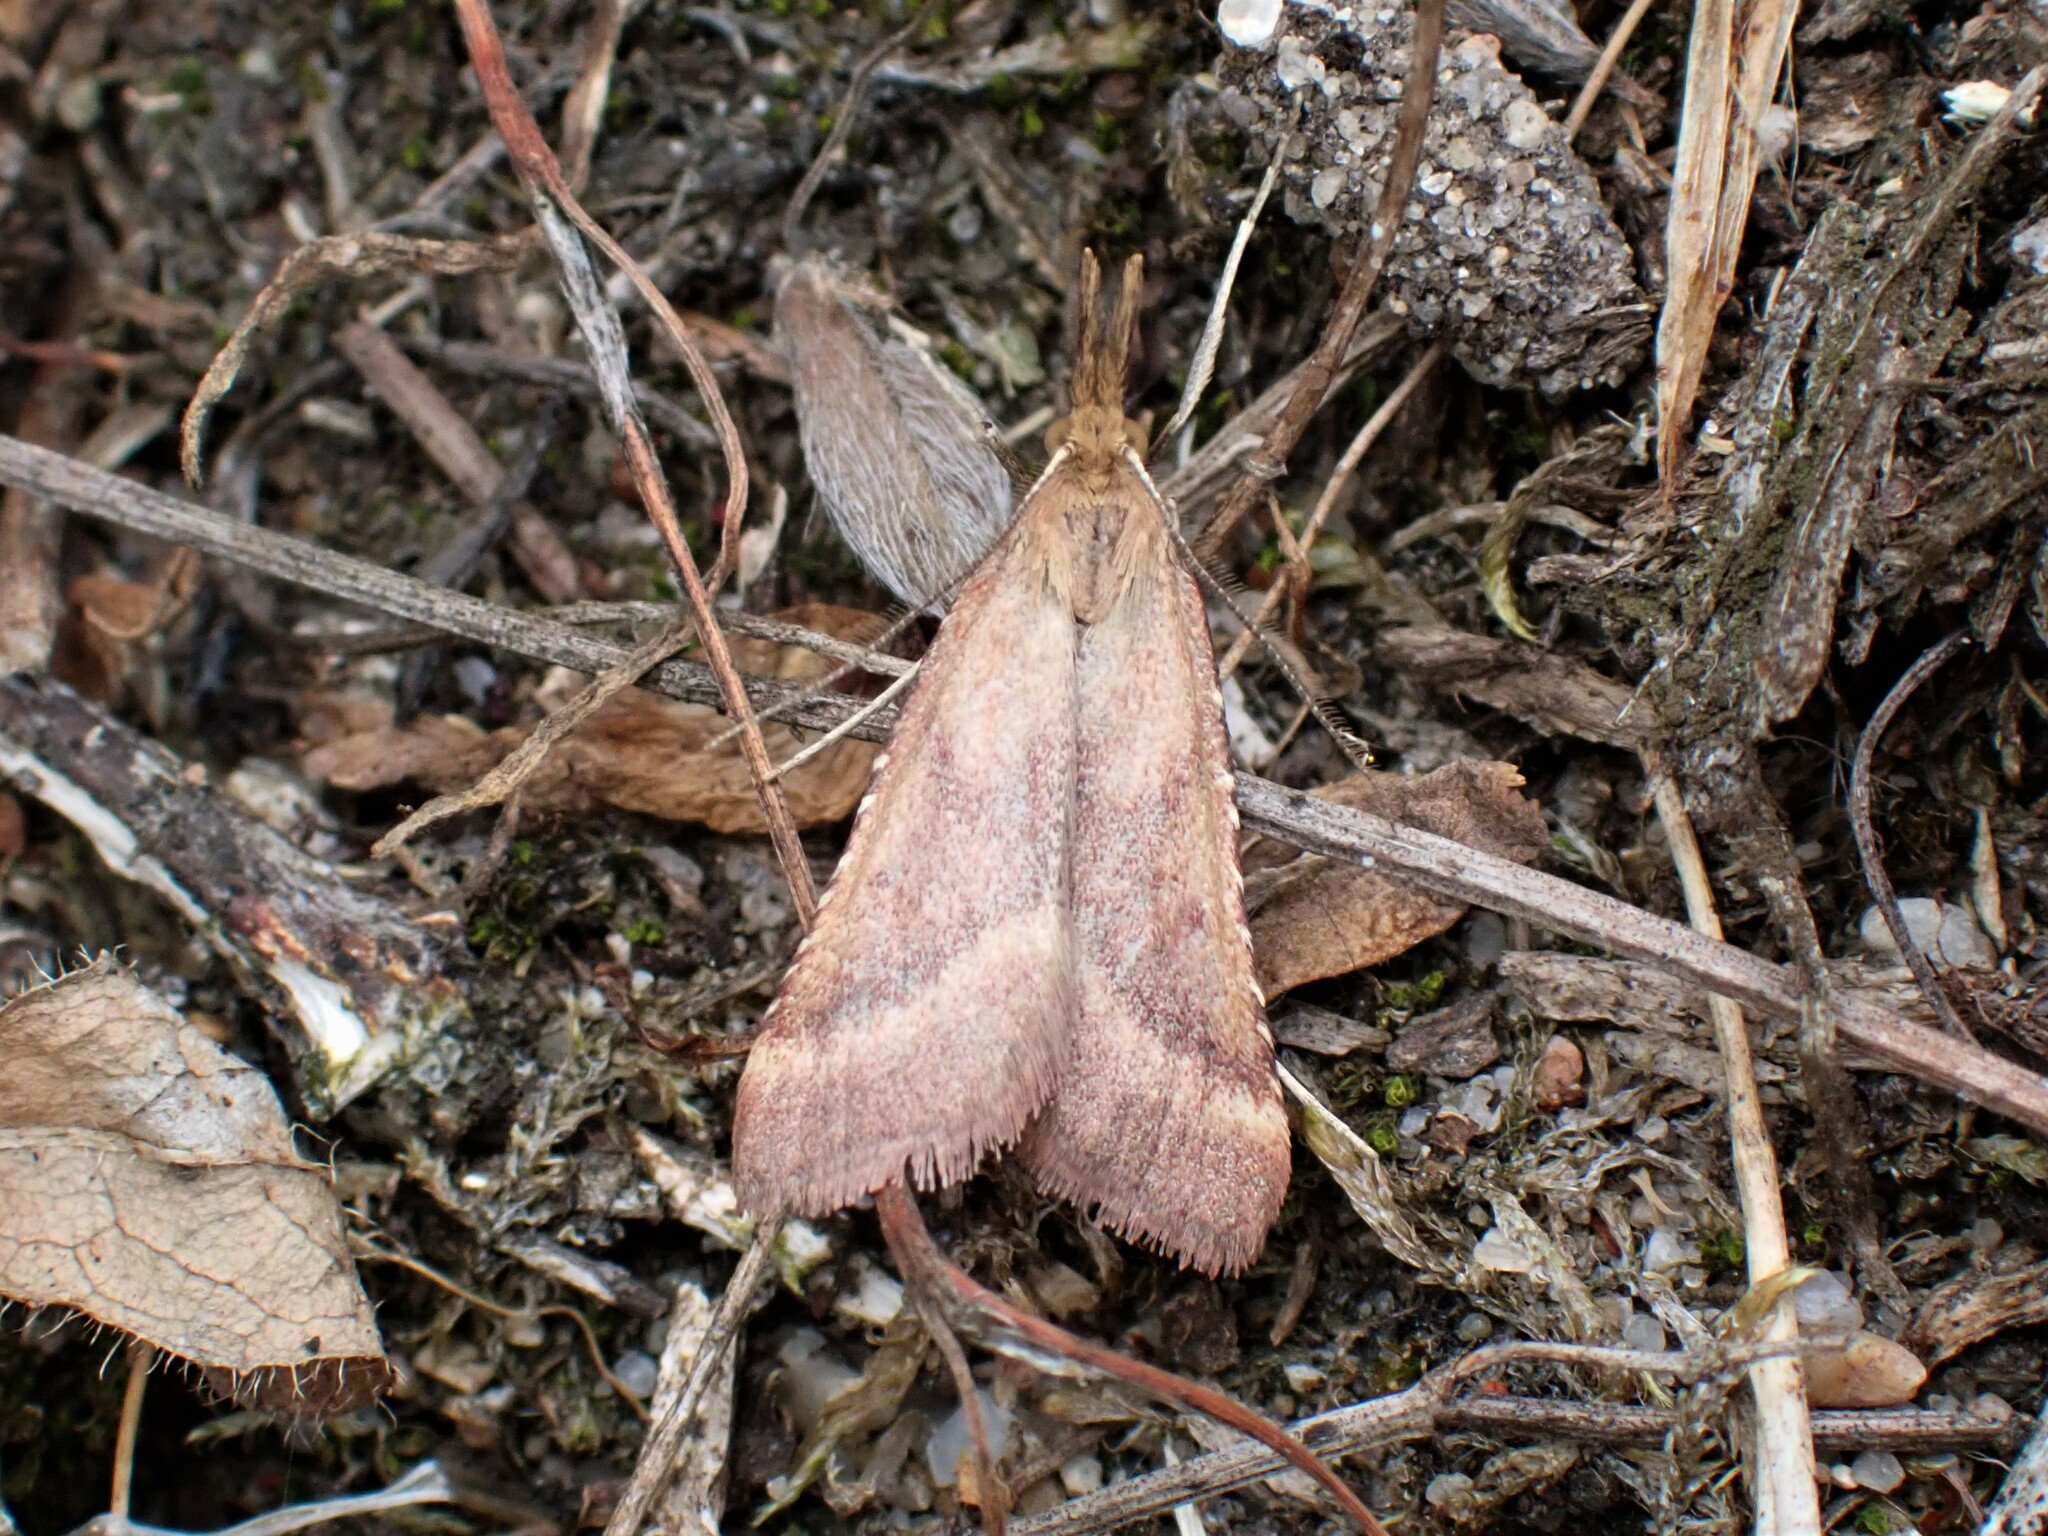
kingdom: Animalia
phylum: Arthropoda
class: Insecta
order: Lepidoptera
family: Pyralidae
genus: Synaphe
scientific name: Synaphe punctalis
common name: Long-legged tabby
